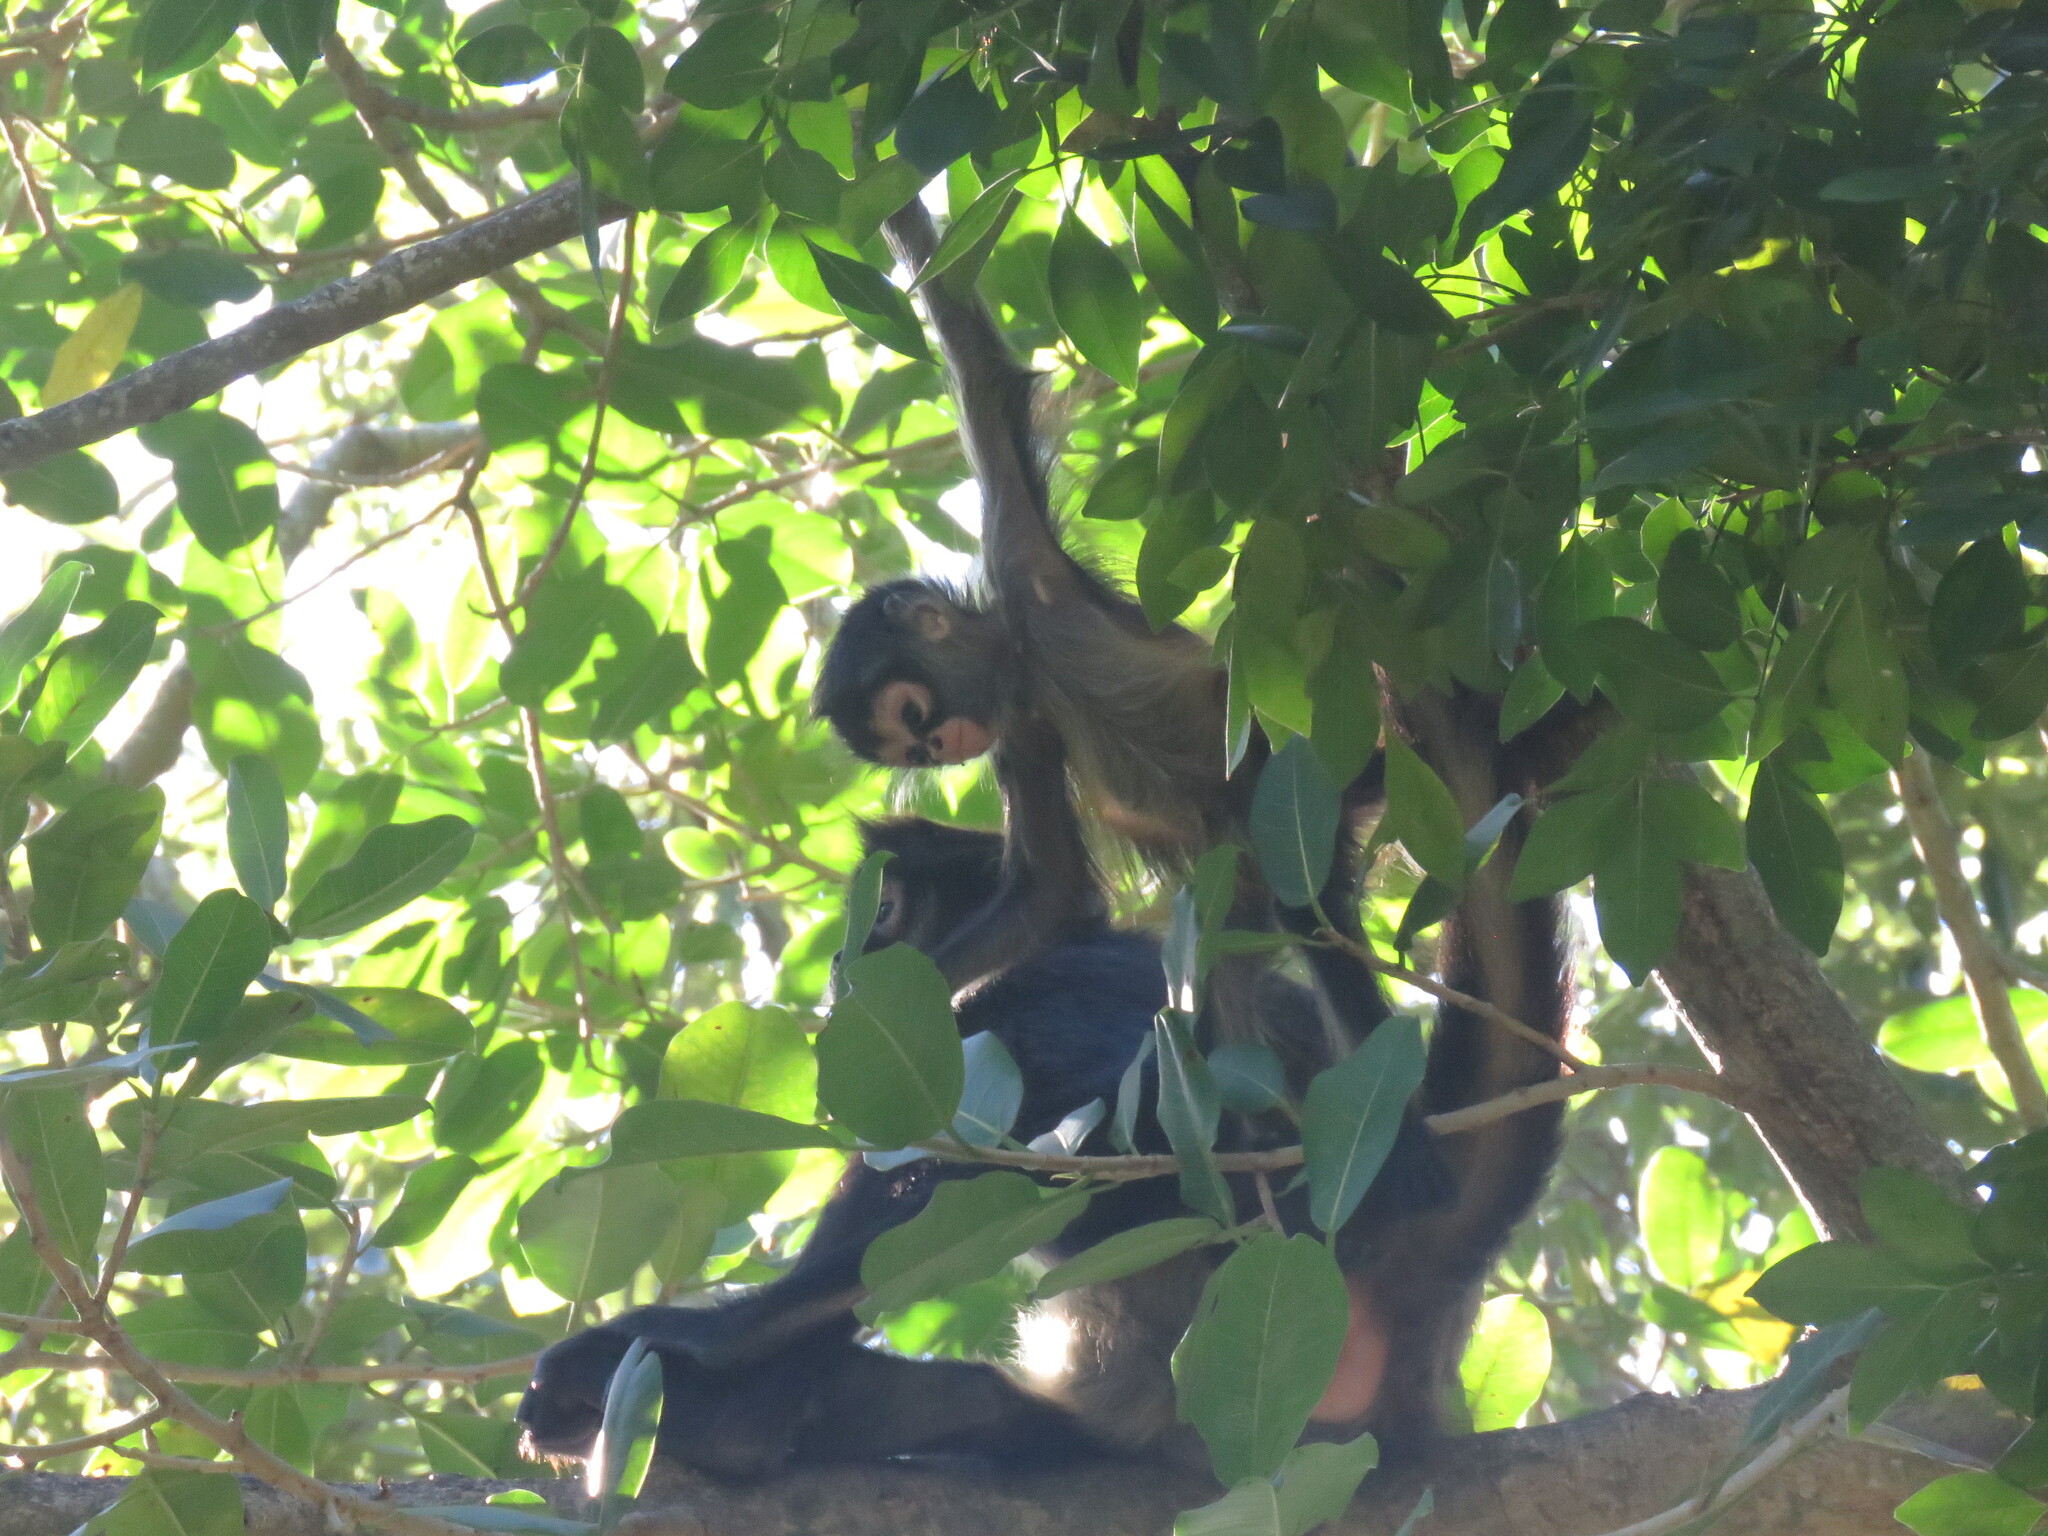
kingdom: Animalia
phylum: Chordata
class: Mammalia
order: Primates
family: Atelidae
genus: Ateles
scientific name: Ateles geoffroyi
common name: Black-handed spider monkey
